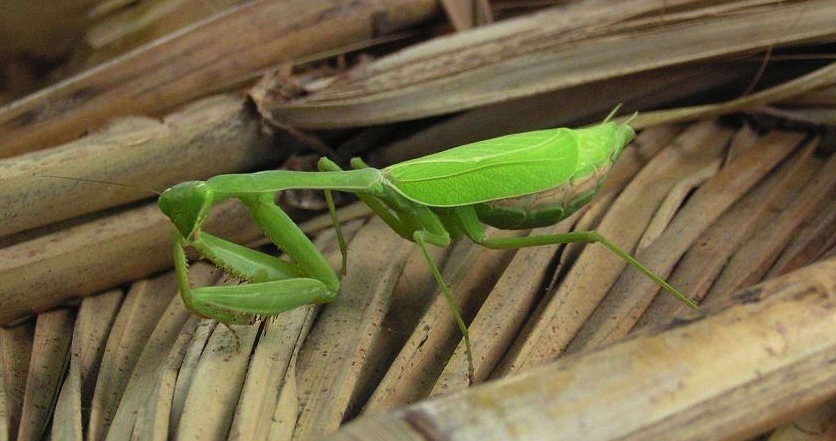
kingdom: Animalia
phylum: Arthropoda
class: Insecta
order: Mantodea
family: Mantidae
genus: Stagmomantis
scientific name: Stagmomantis
